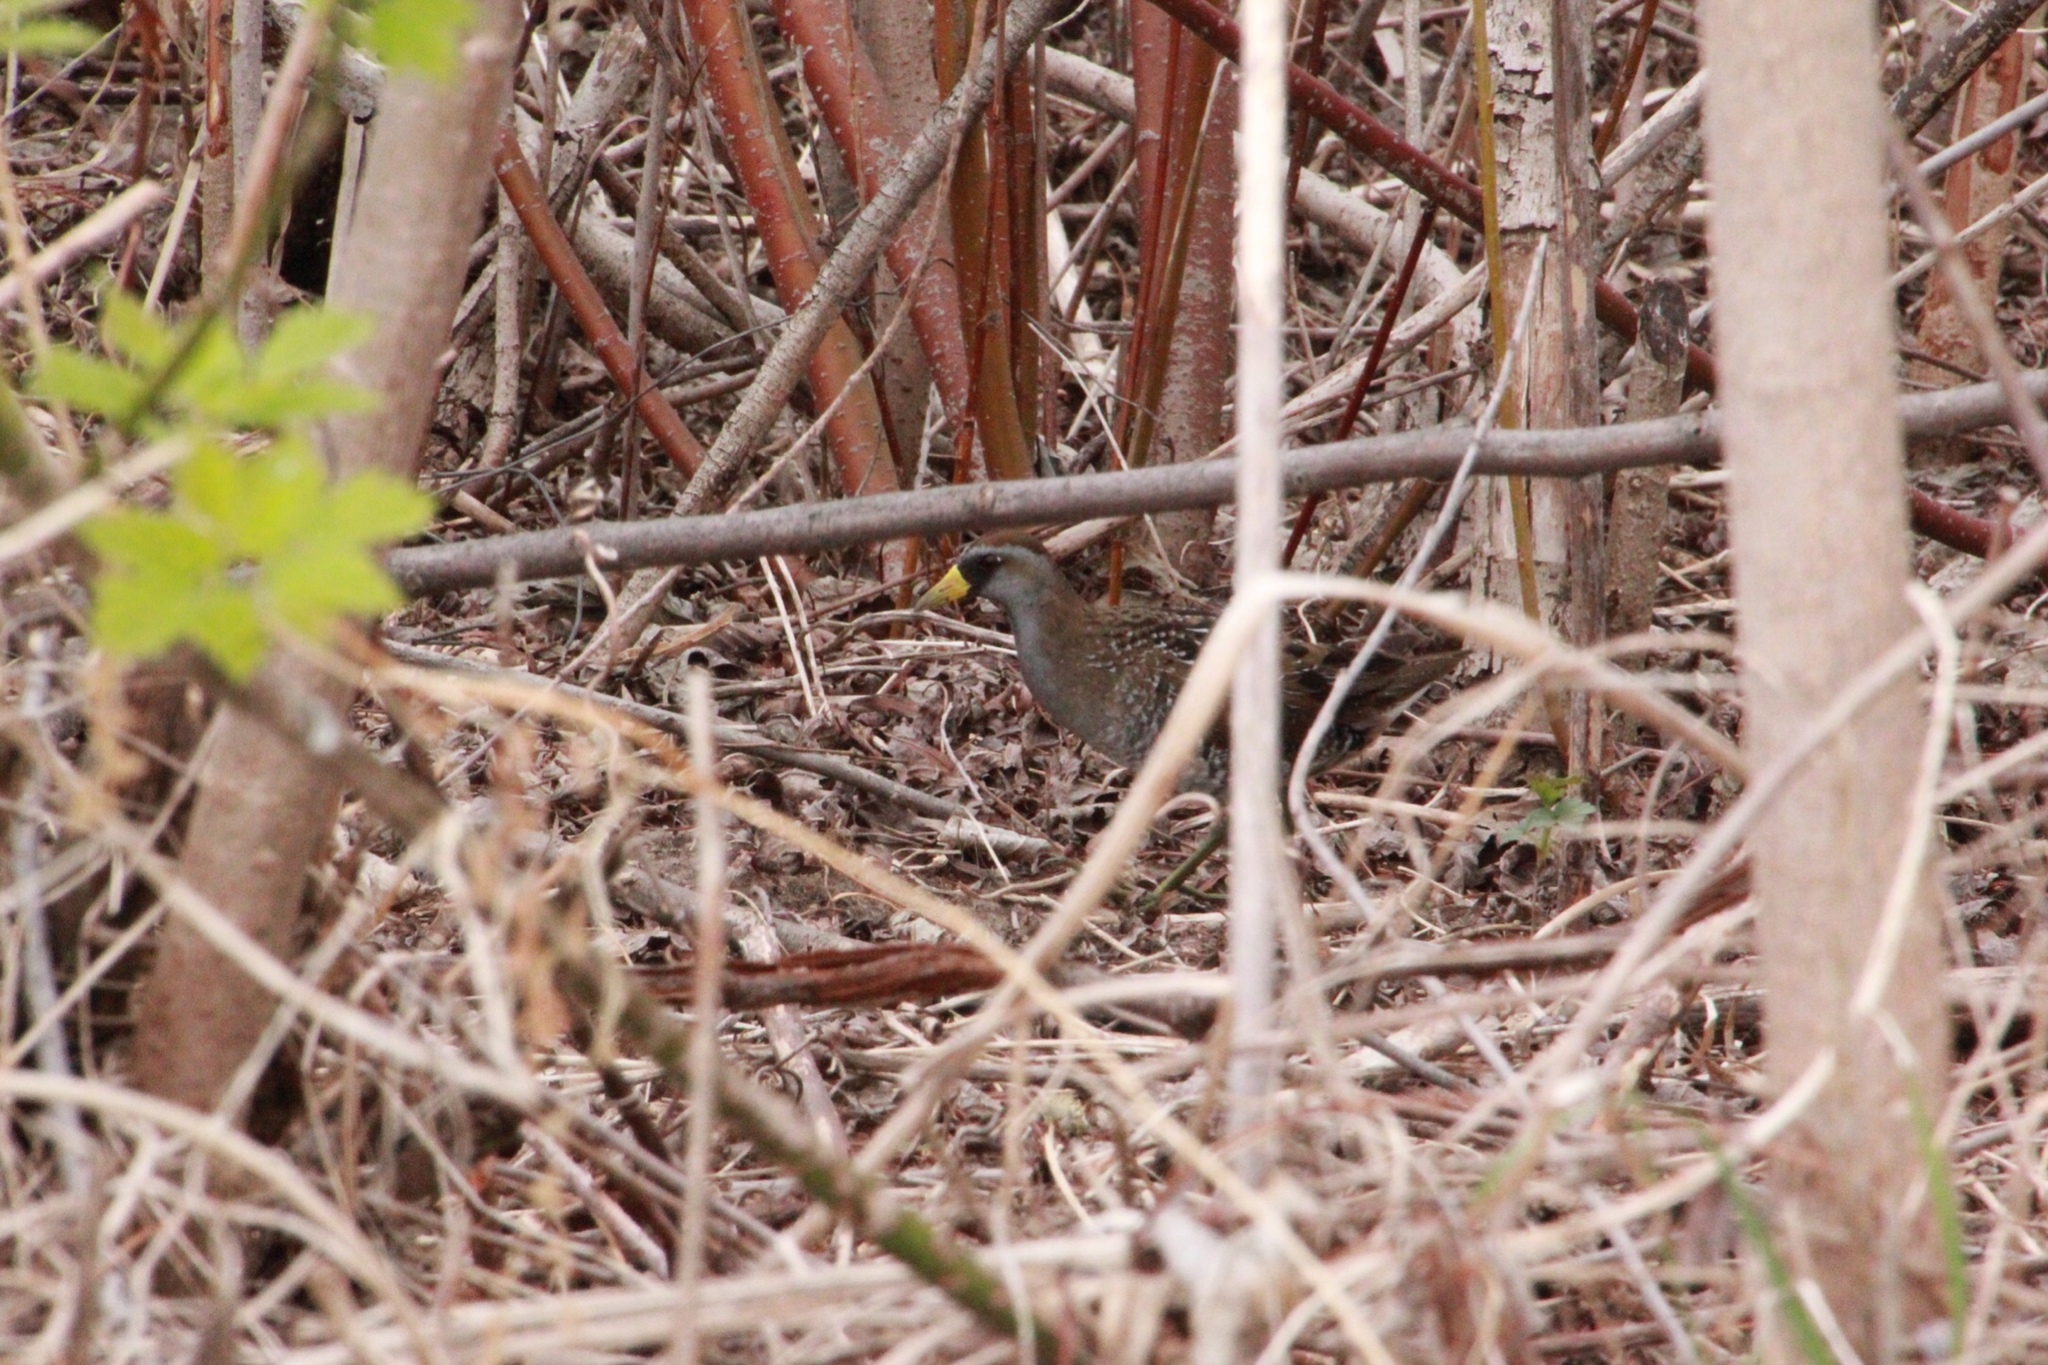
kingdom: Animalia
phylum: Chordata
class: Aves
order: Gruiformes
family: Rallidae
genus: Porzana
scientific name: Porzana carolina
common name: Sora
